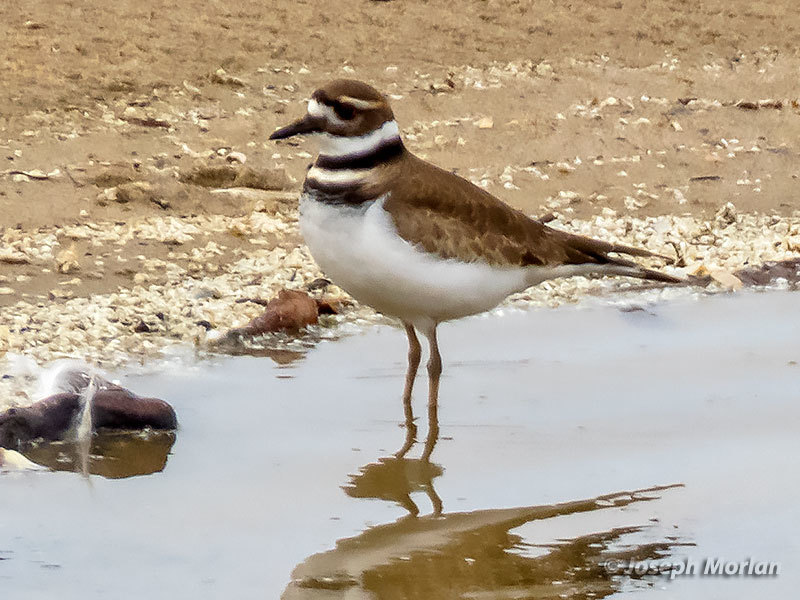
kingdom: Animalia
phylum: Chordata
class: Aves
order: Charadriiformes
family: Charadriidae
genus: Charadrius
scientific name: Charadrius vociferus
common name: Killdeer
